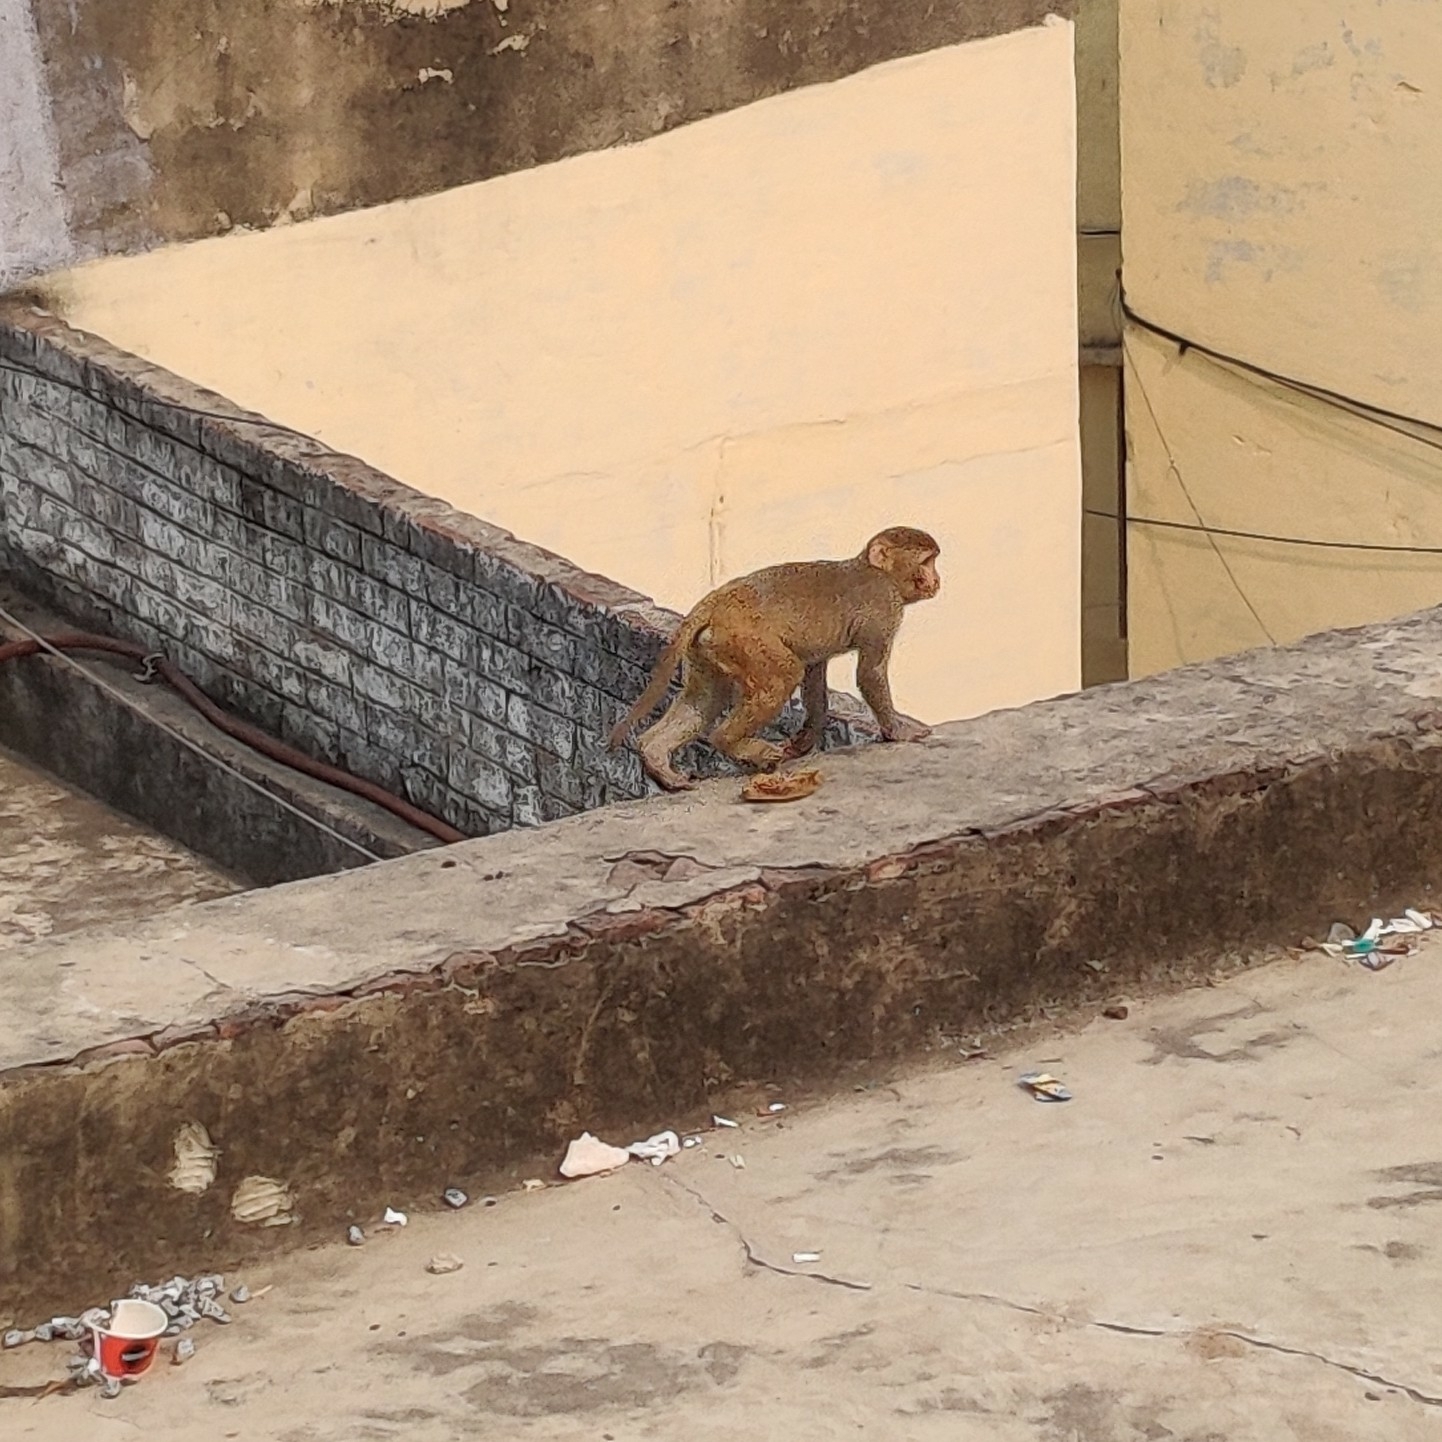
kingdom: Animalia
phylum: Chordata
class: Mammalia
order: Primates
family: Cercopithecidae
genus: Macaca
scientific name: Macaca mulatta
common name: Rhesus monkey
